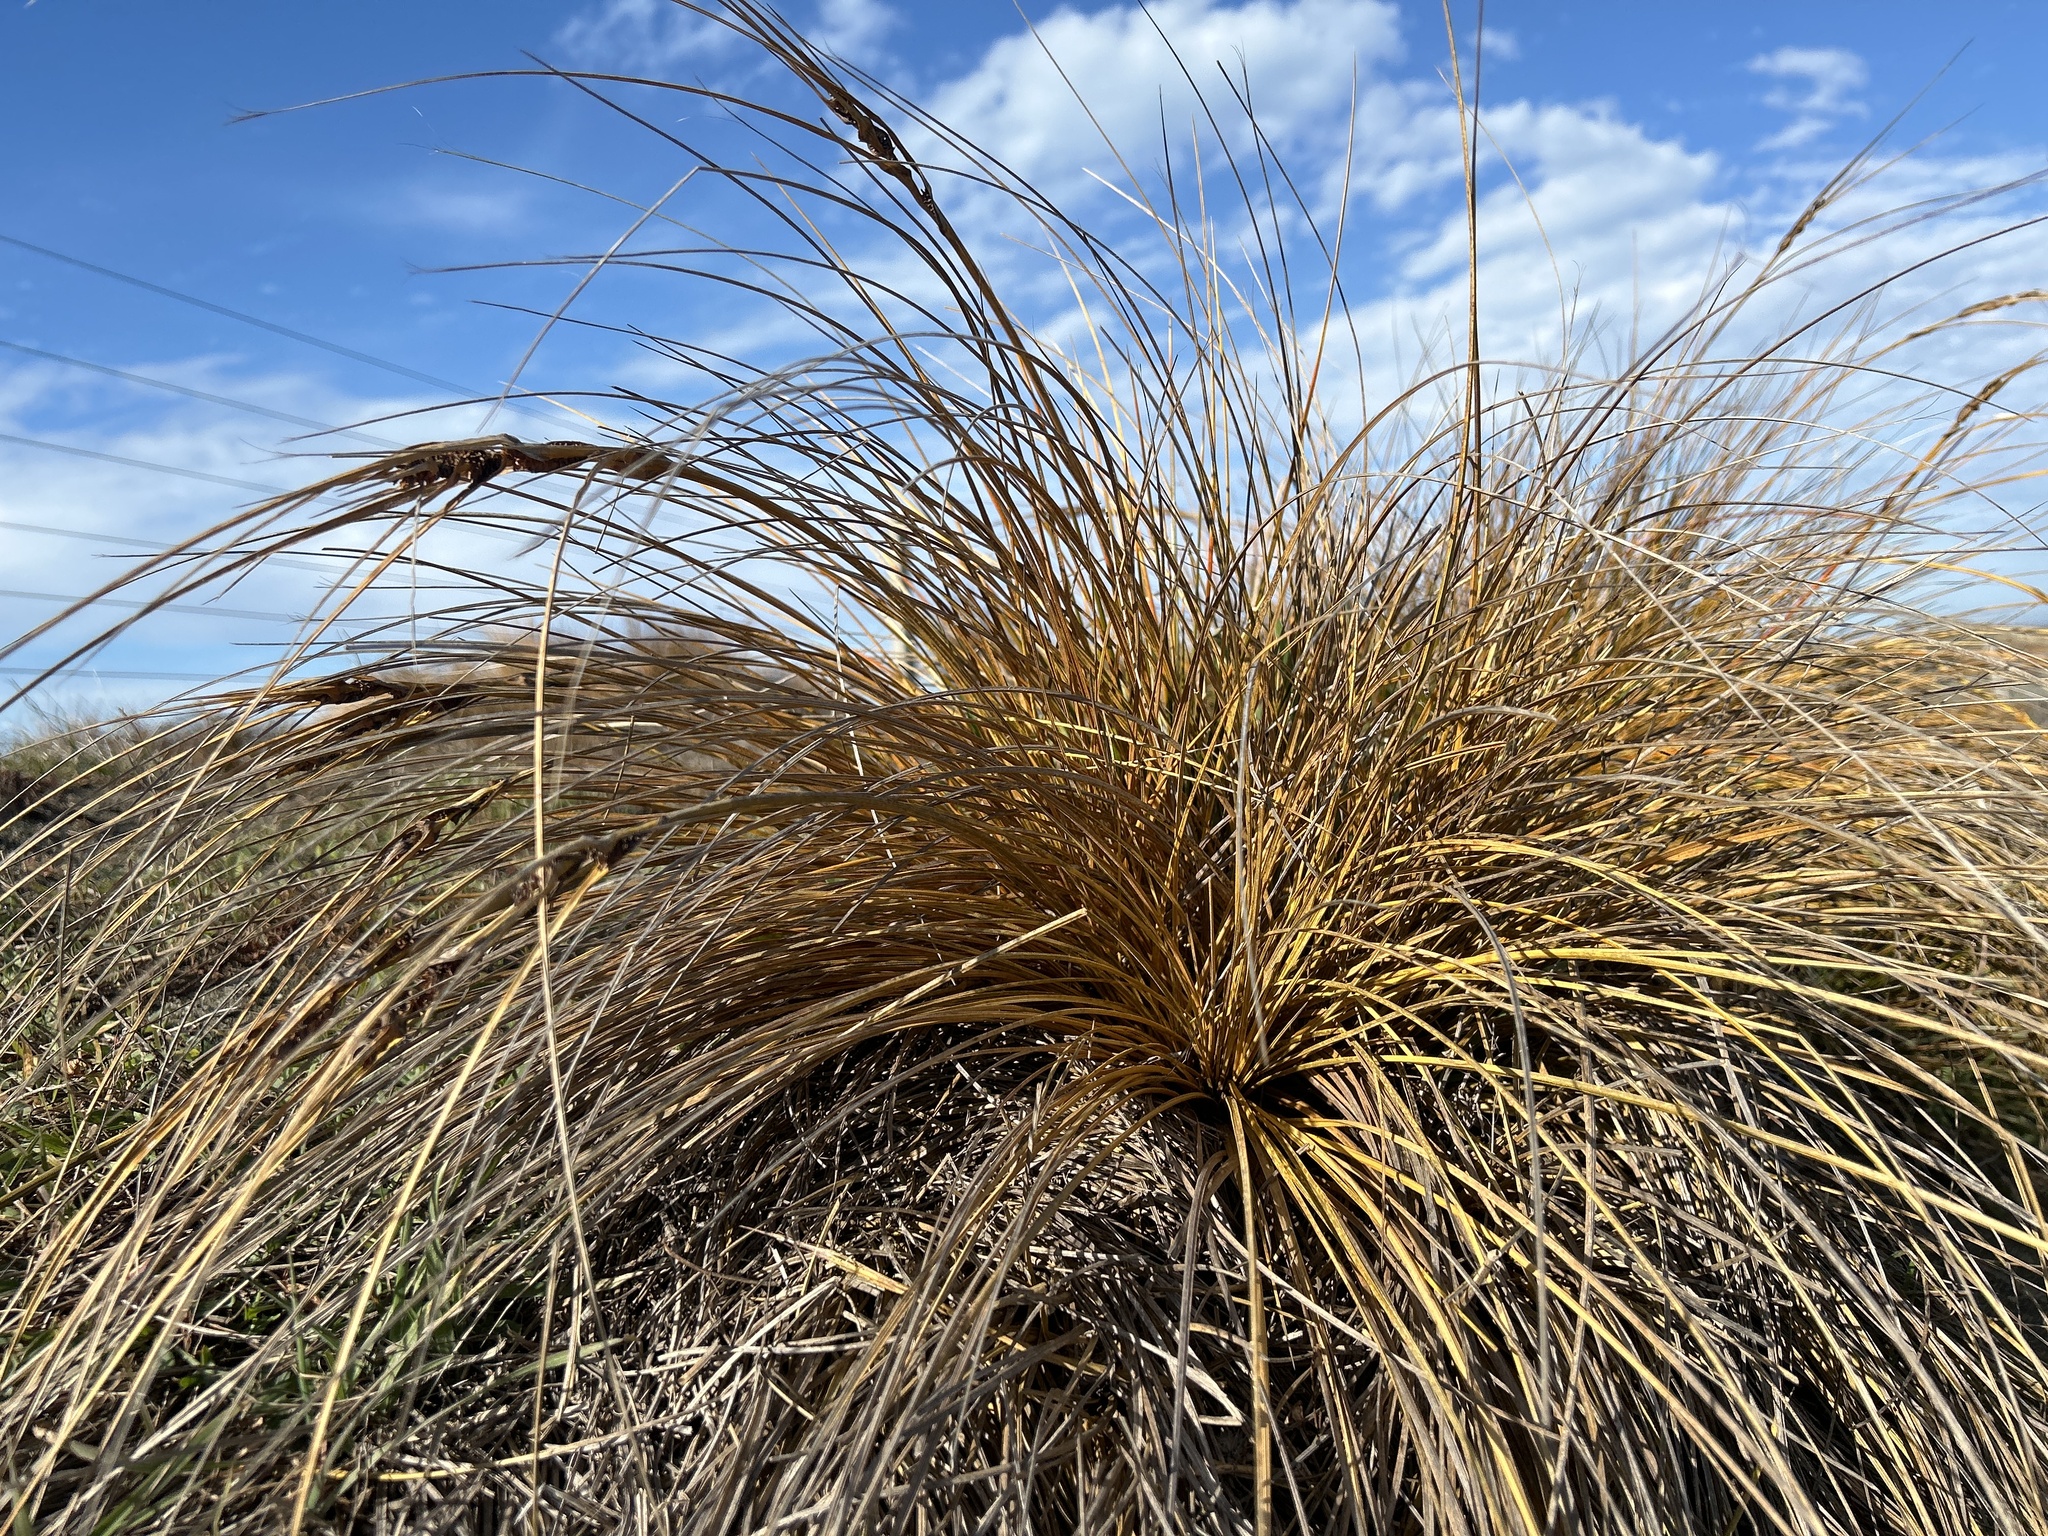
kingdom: Plantae
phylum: Tracheophyta
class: Liliopsida
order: Poales
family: Cyperaceae
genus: Ficinia
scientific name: Ficinia spiralis
